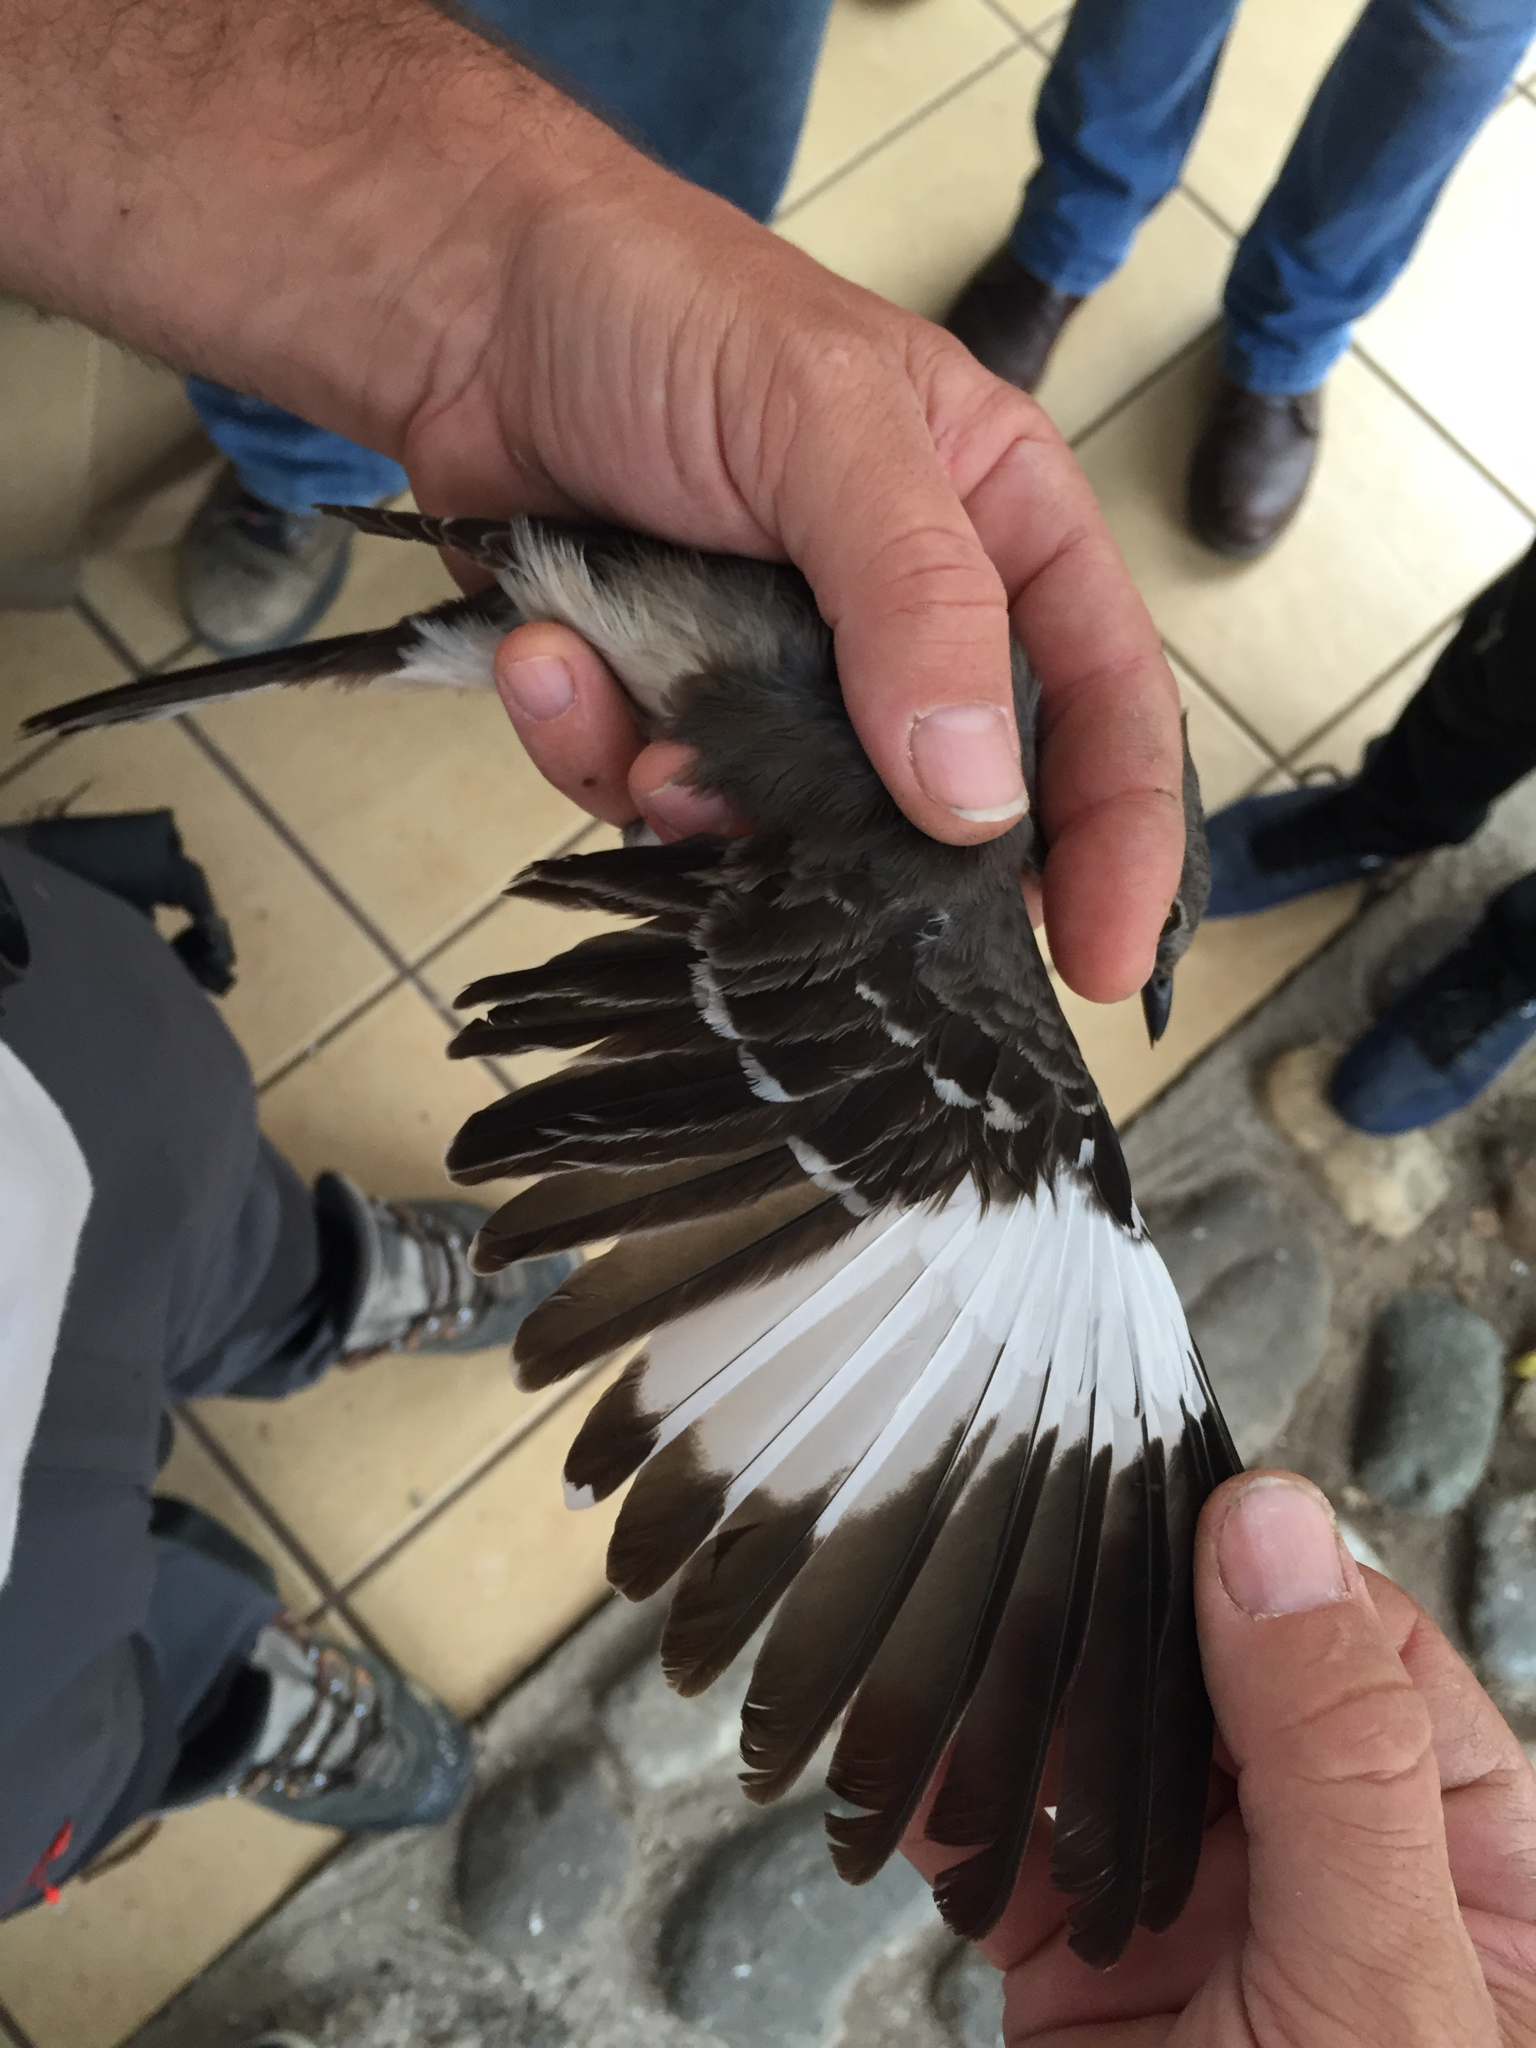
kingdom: Animalia
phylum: Chordata
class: Aves
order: Passeriformes
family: Mimidae
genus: Mimus
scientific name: Mimus polyglottos
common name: Northern mockingbird
